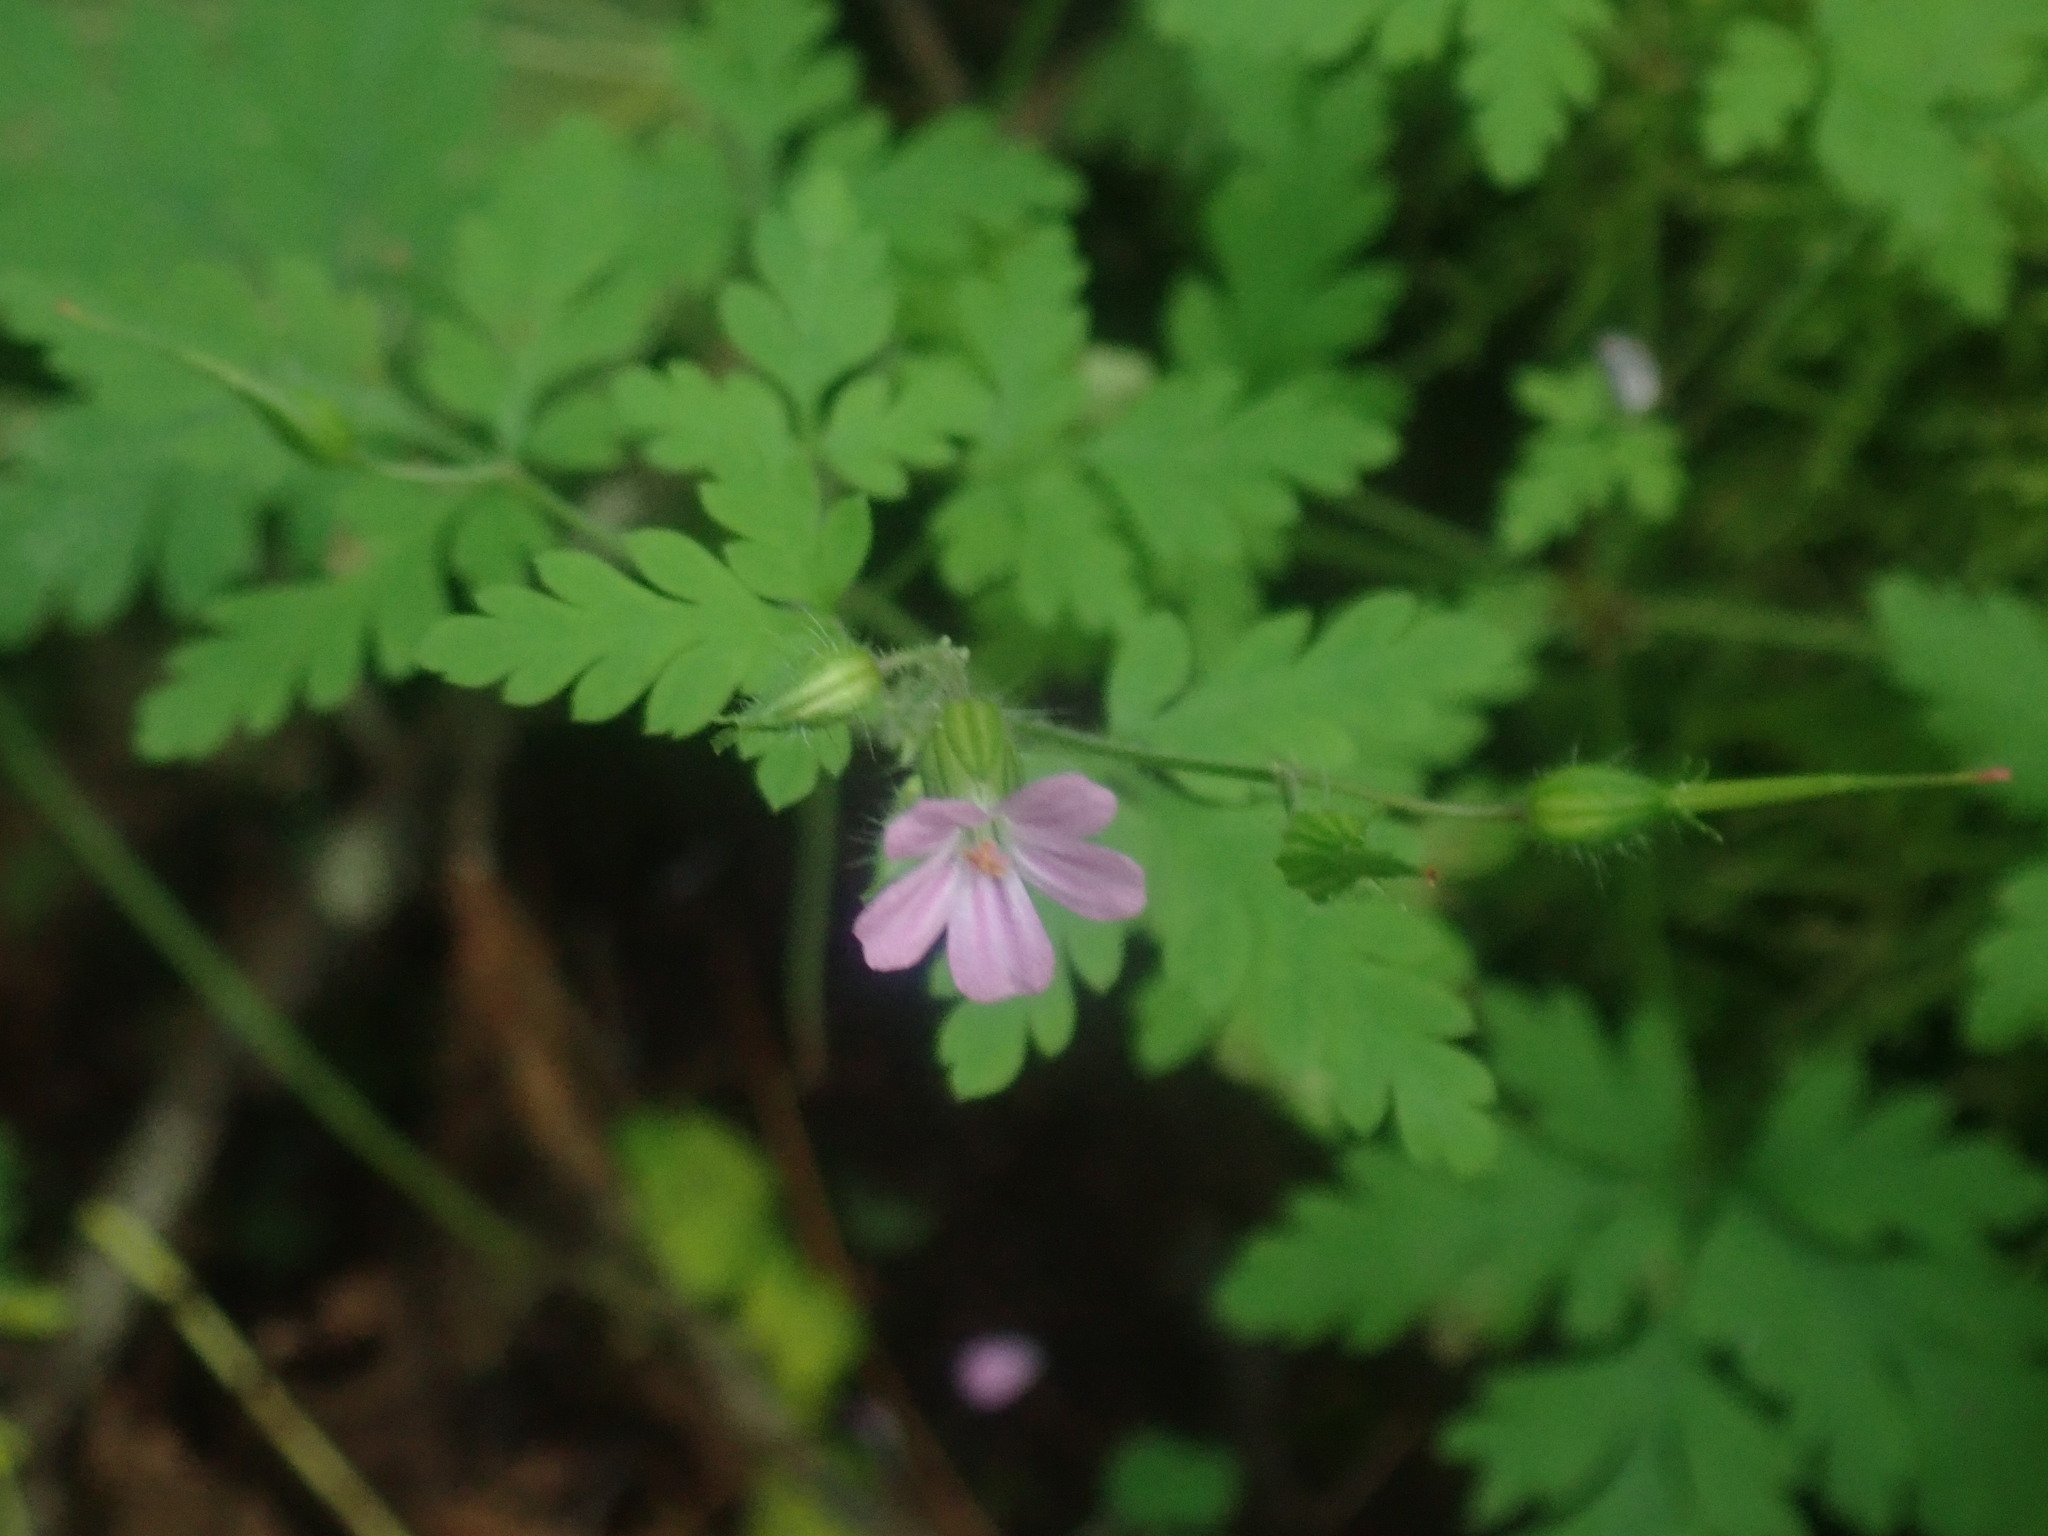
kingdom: Plantae
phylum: Tracheophyta
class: Magnoliopsida
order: Geraniales
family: Geraniaceae
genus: Geranium
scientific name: Geranium robertianum
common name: Herb-robert
